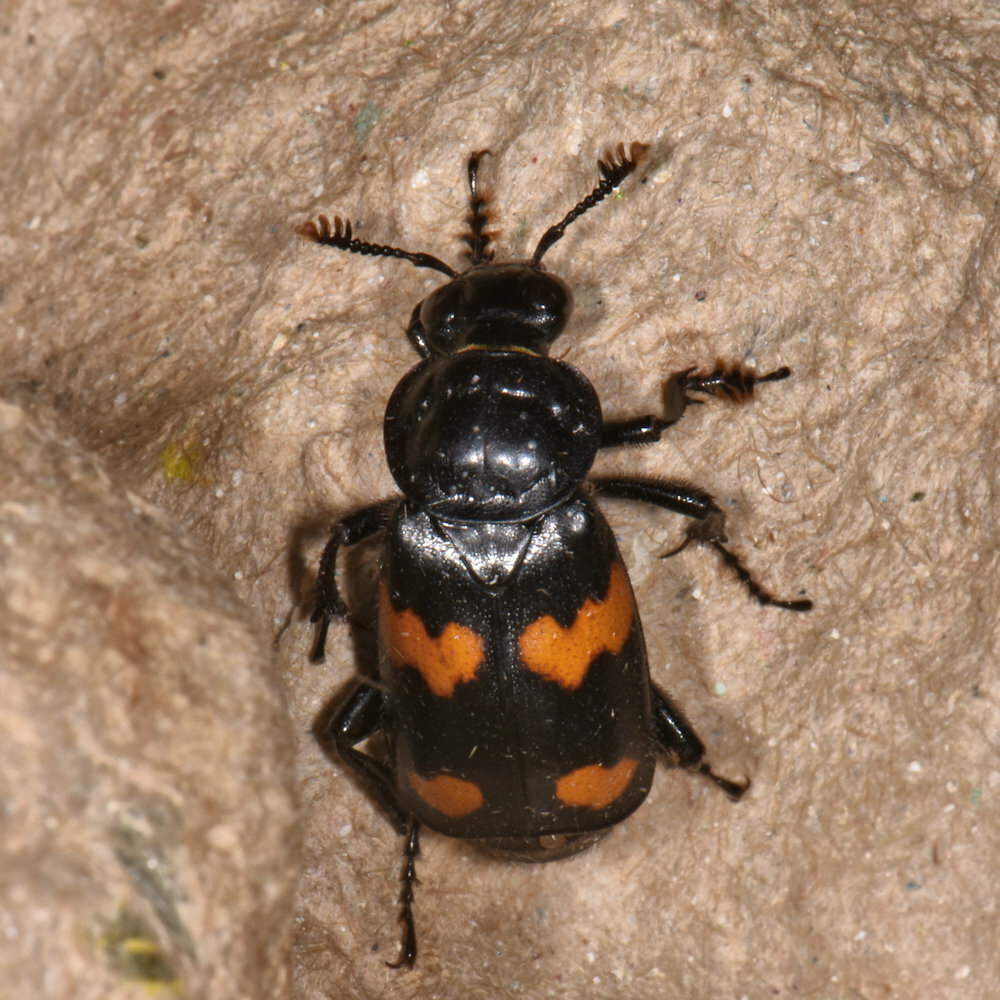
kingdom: Animalia
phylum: Arthropoda
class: Insecta
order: Coleoptera
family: Staphylinidae
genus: Nicrophorus
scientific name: Nicrophorus orbicollis
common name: Roundneck sexton beetle
